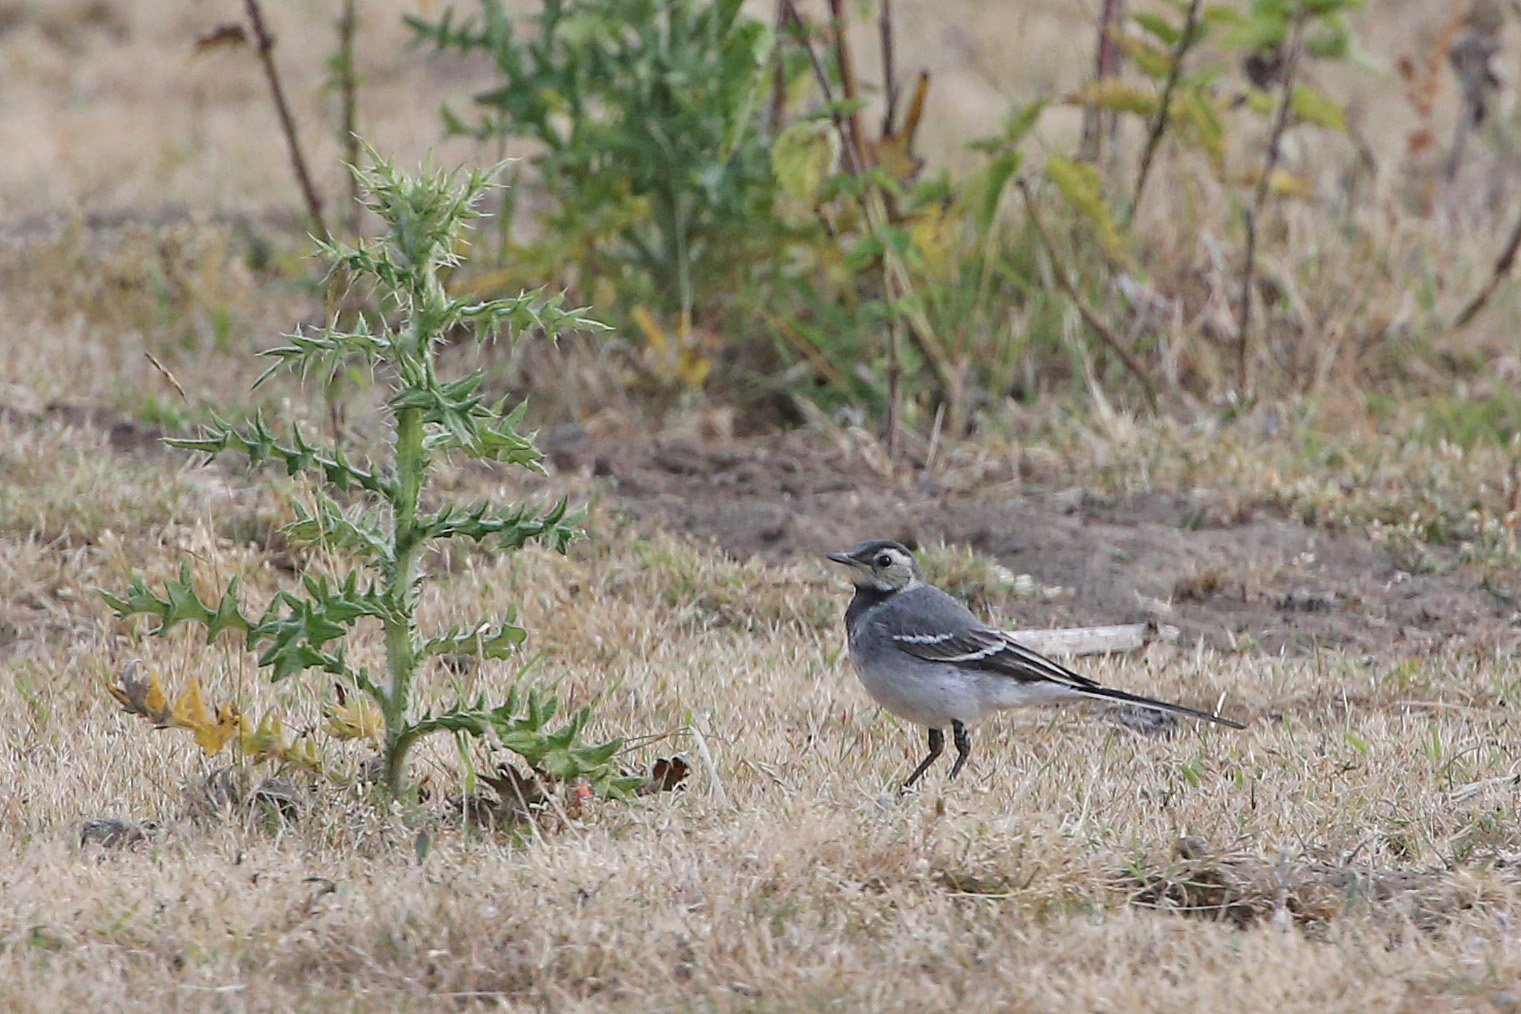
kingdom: Animalia
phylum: Chordata
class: Aves
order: Passeriformes
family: Motacillidae
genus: Motacilla
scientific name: Motacilla alba
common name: White wagtail
